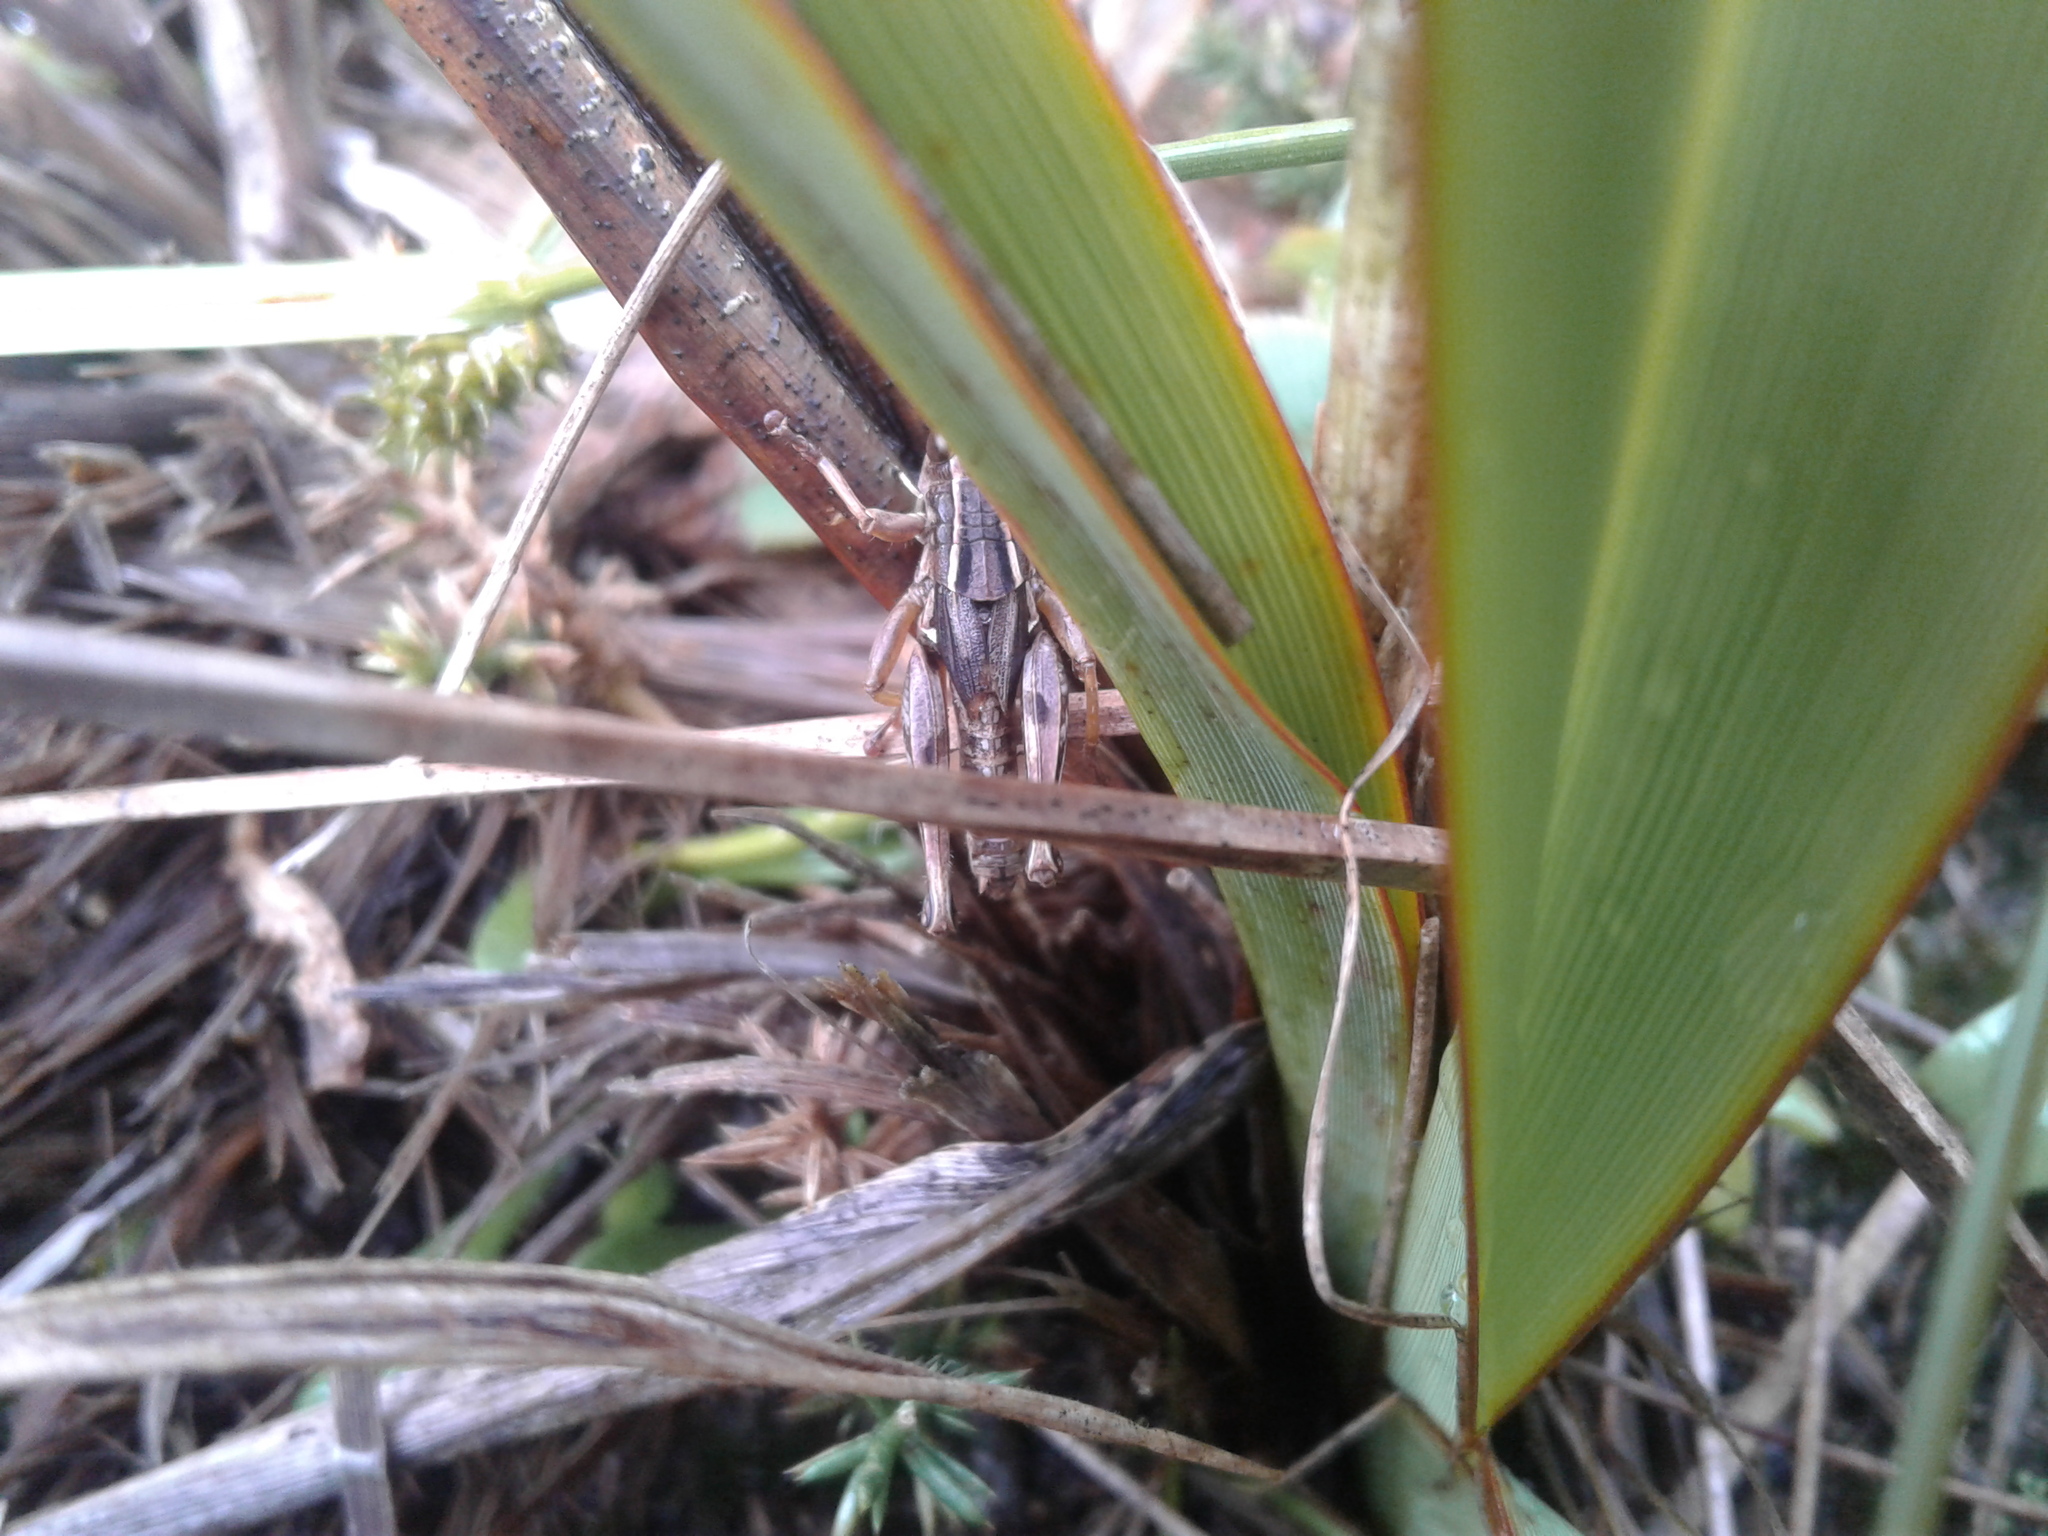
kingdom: Animalia
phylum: Arthropoda
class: Insecta
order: Orthoptera
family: Acrididae
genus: Phaulacridium
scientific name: Phaulacridium marginale
